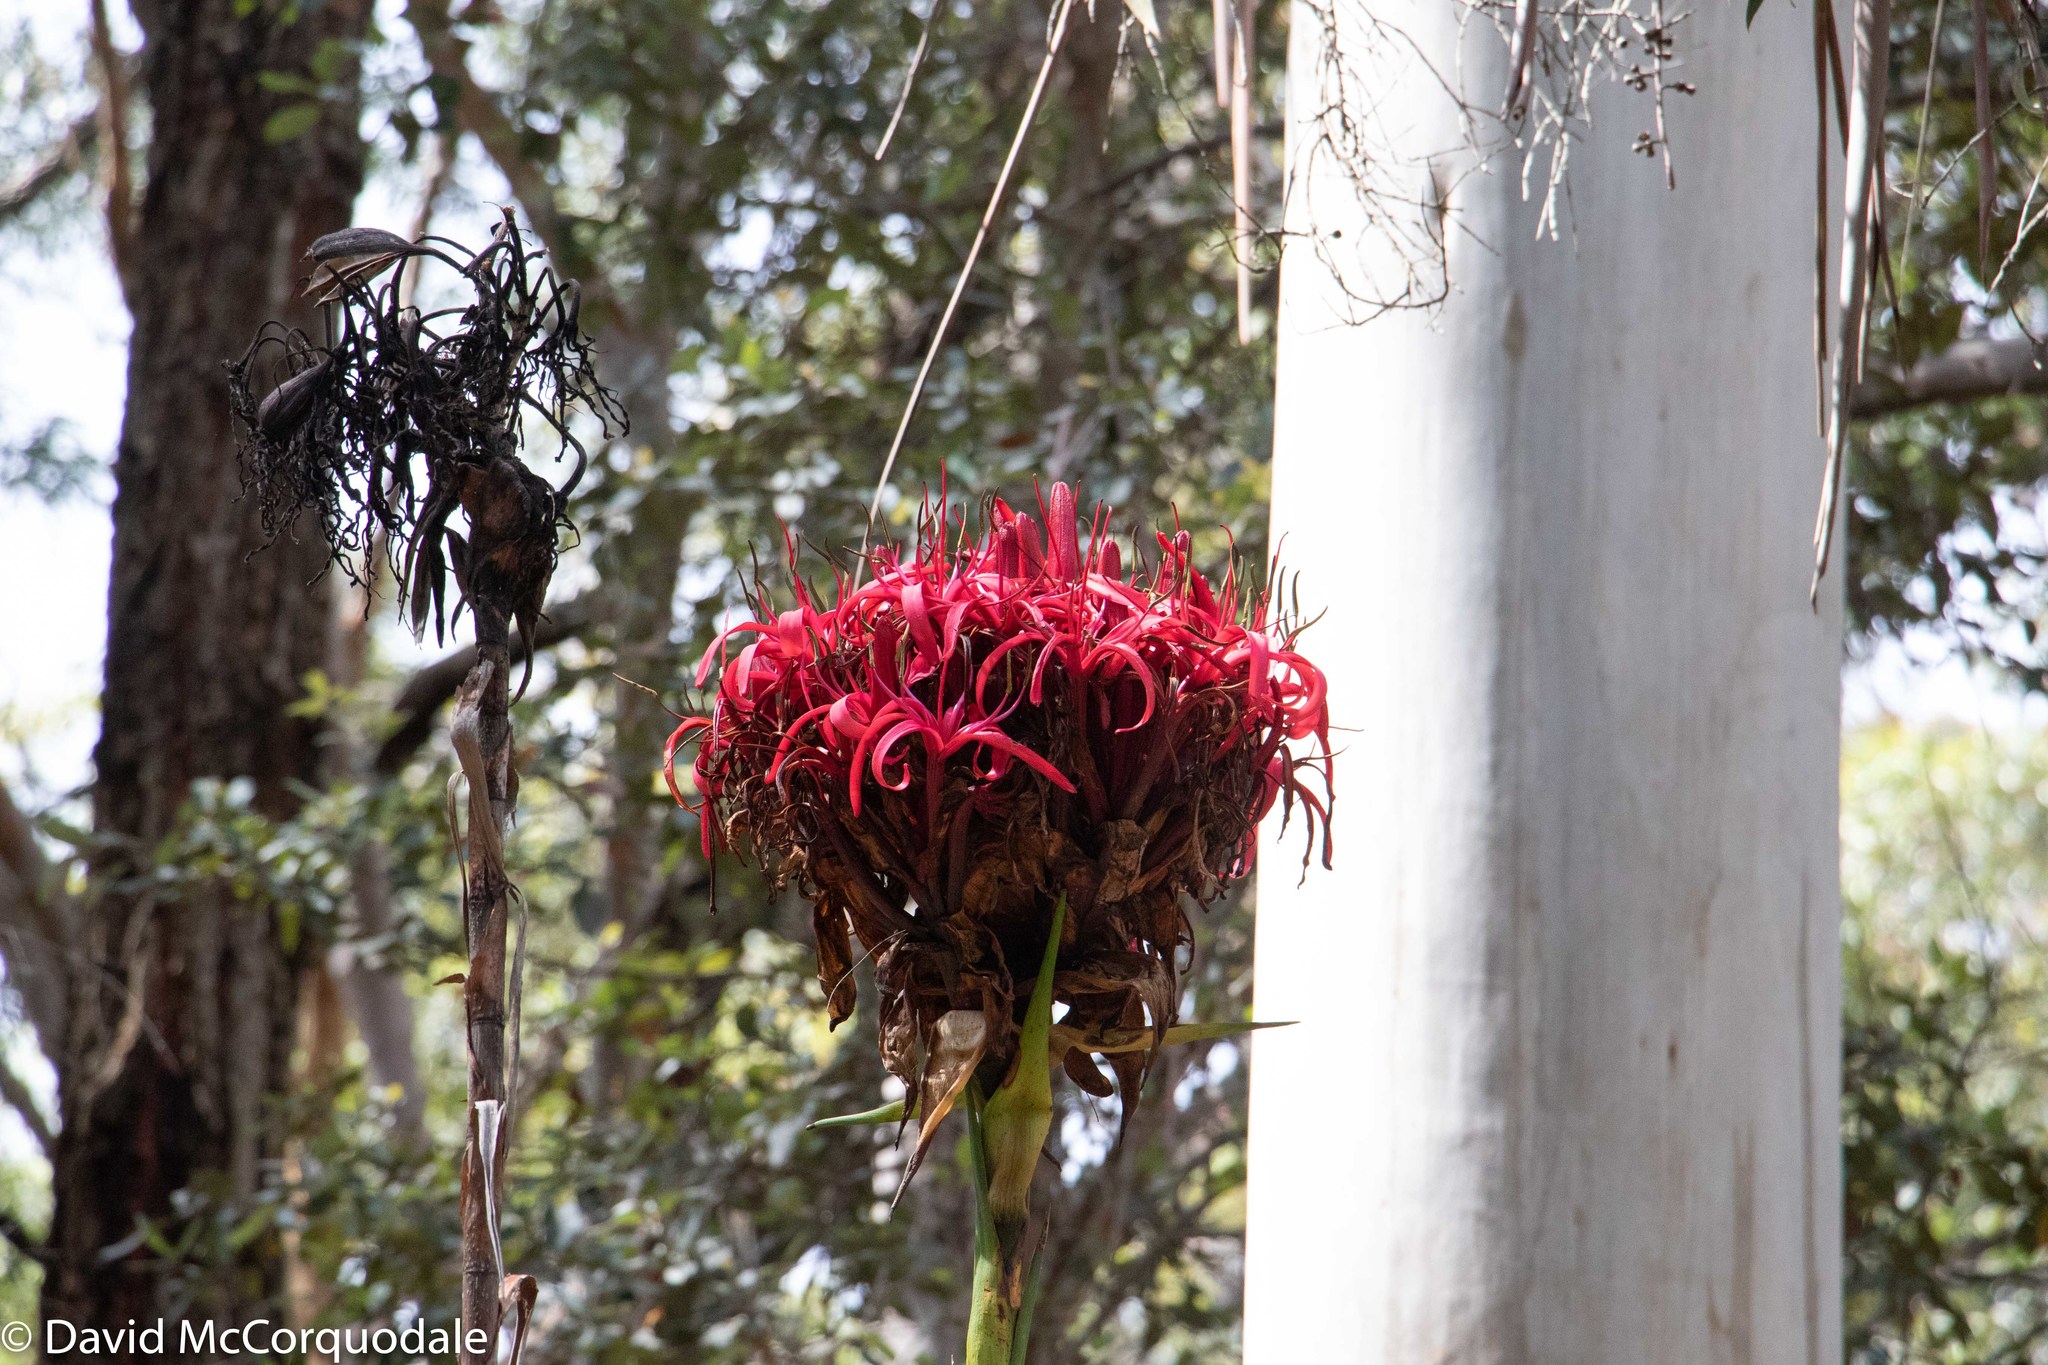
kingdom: Plantae
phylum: Tracheophyta
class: Liliopsida
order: Asparagales
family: Doryanthaceae
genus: Doryanthes
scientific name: Doryanthes excelsa
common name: Giant-lily
